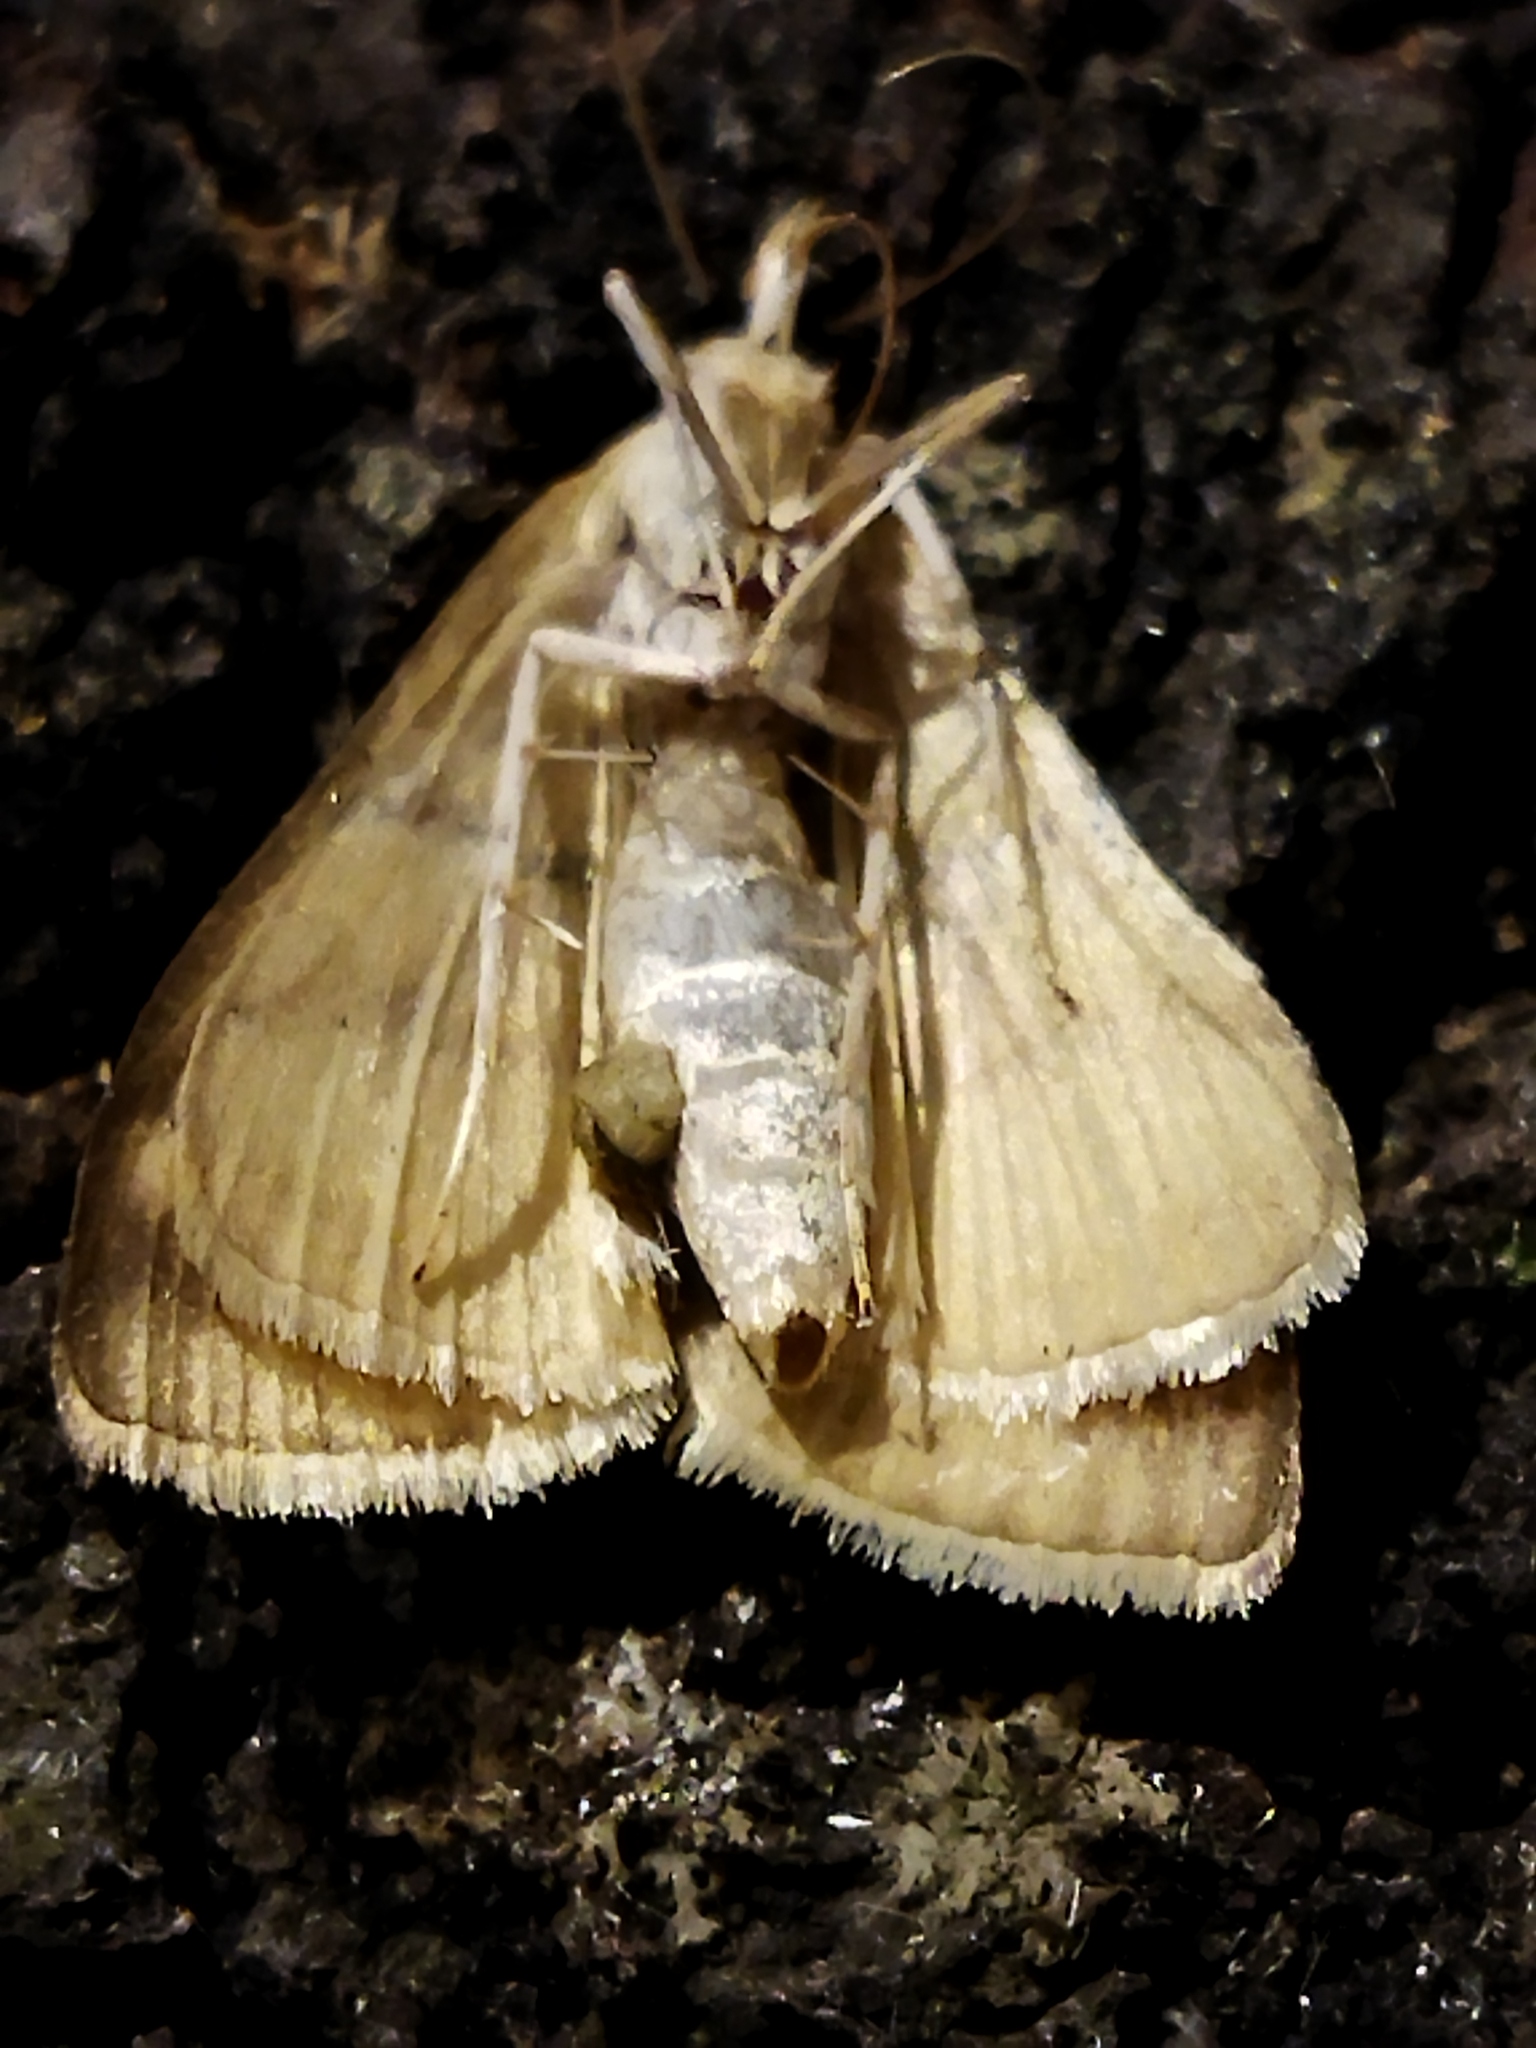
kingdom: Animalia
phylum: Arthropoda
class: Insecta
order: Lepidoptera
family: Crambidae
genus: Ostrinia
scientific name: Ostrinia nubilalis
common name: European corn borer
